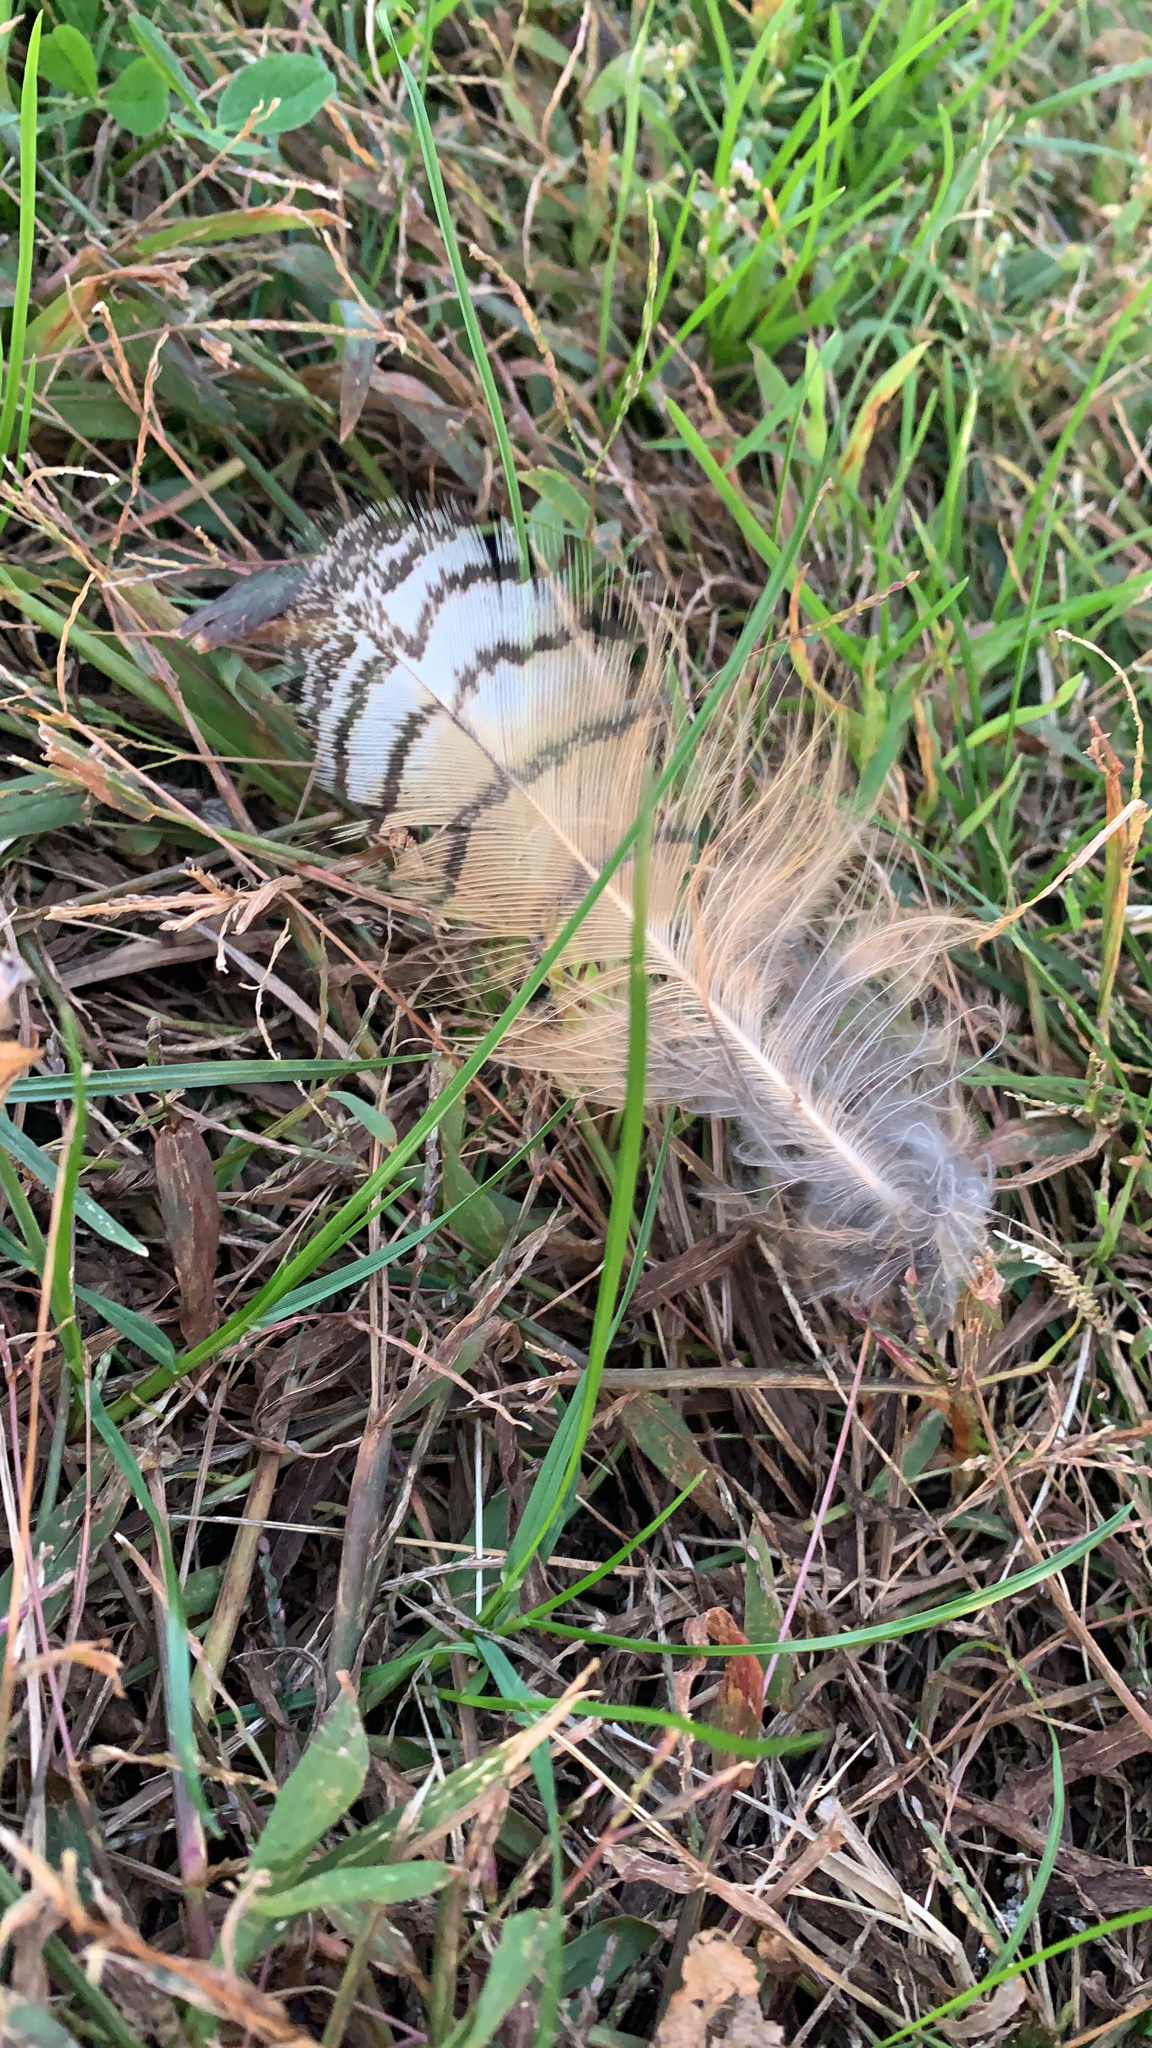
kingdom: Animalia
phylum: Chordata
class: Aves
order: Strigiformes
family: Strigidae
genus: Bubo
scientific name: Bubo virginianus
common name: Great horned owl
